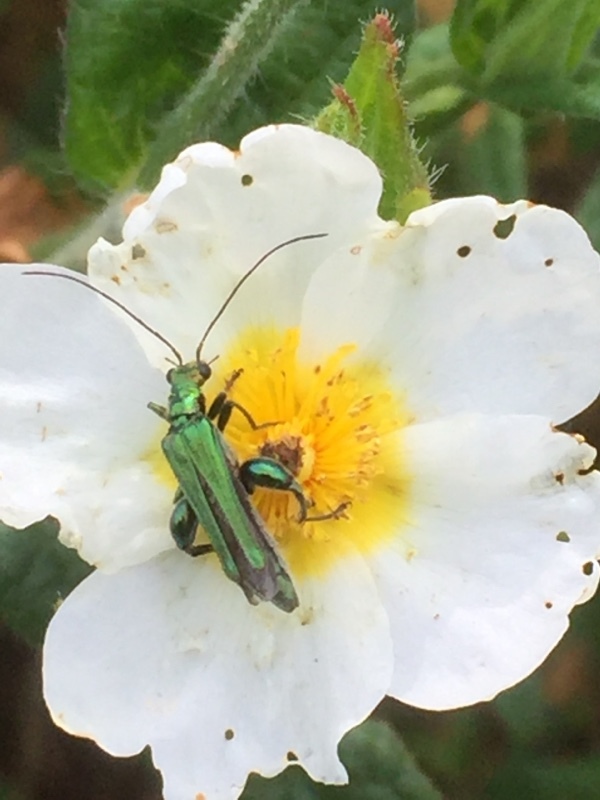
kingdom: Plantae
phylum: Tracheophyta
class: Magnoliopsida
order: Malvales
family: Cistaceae
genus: Cistus
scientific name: Cistus inflatus
